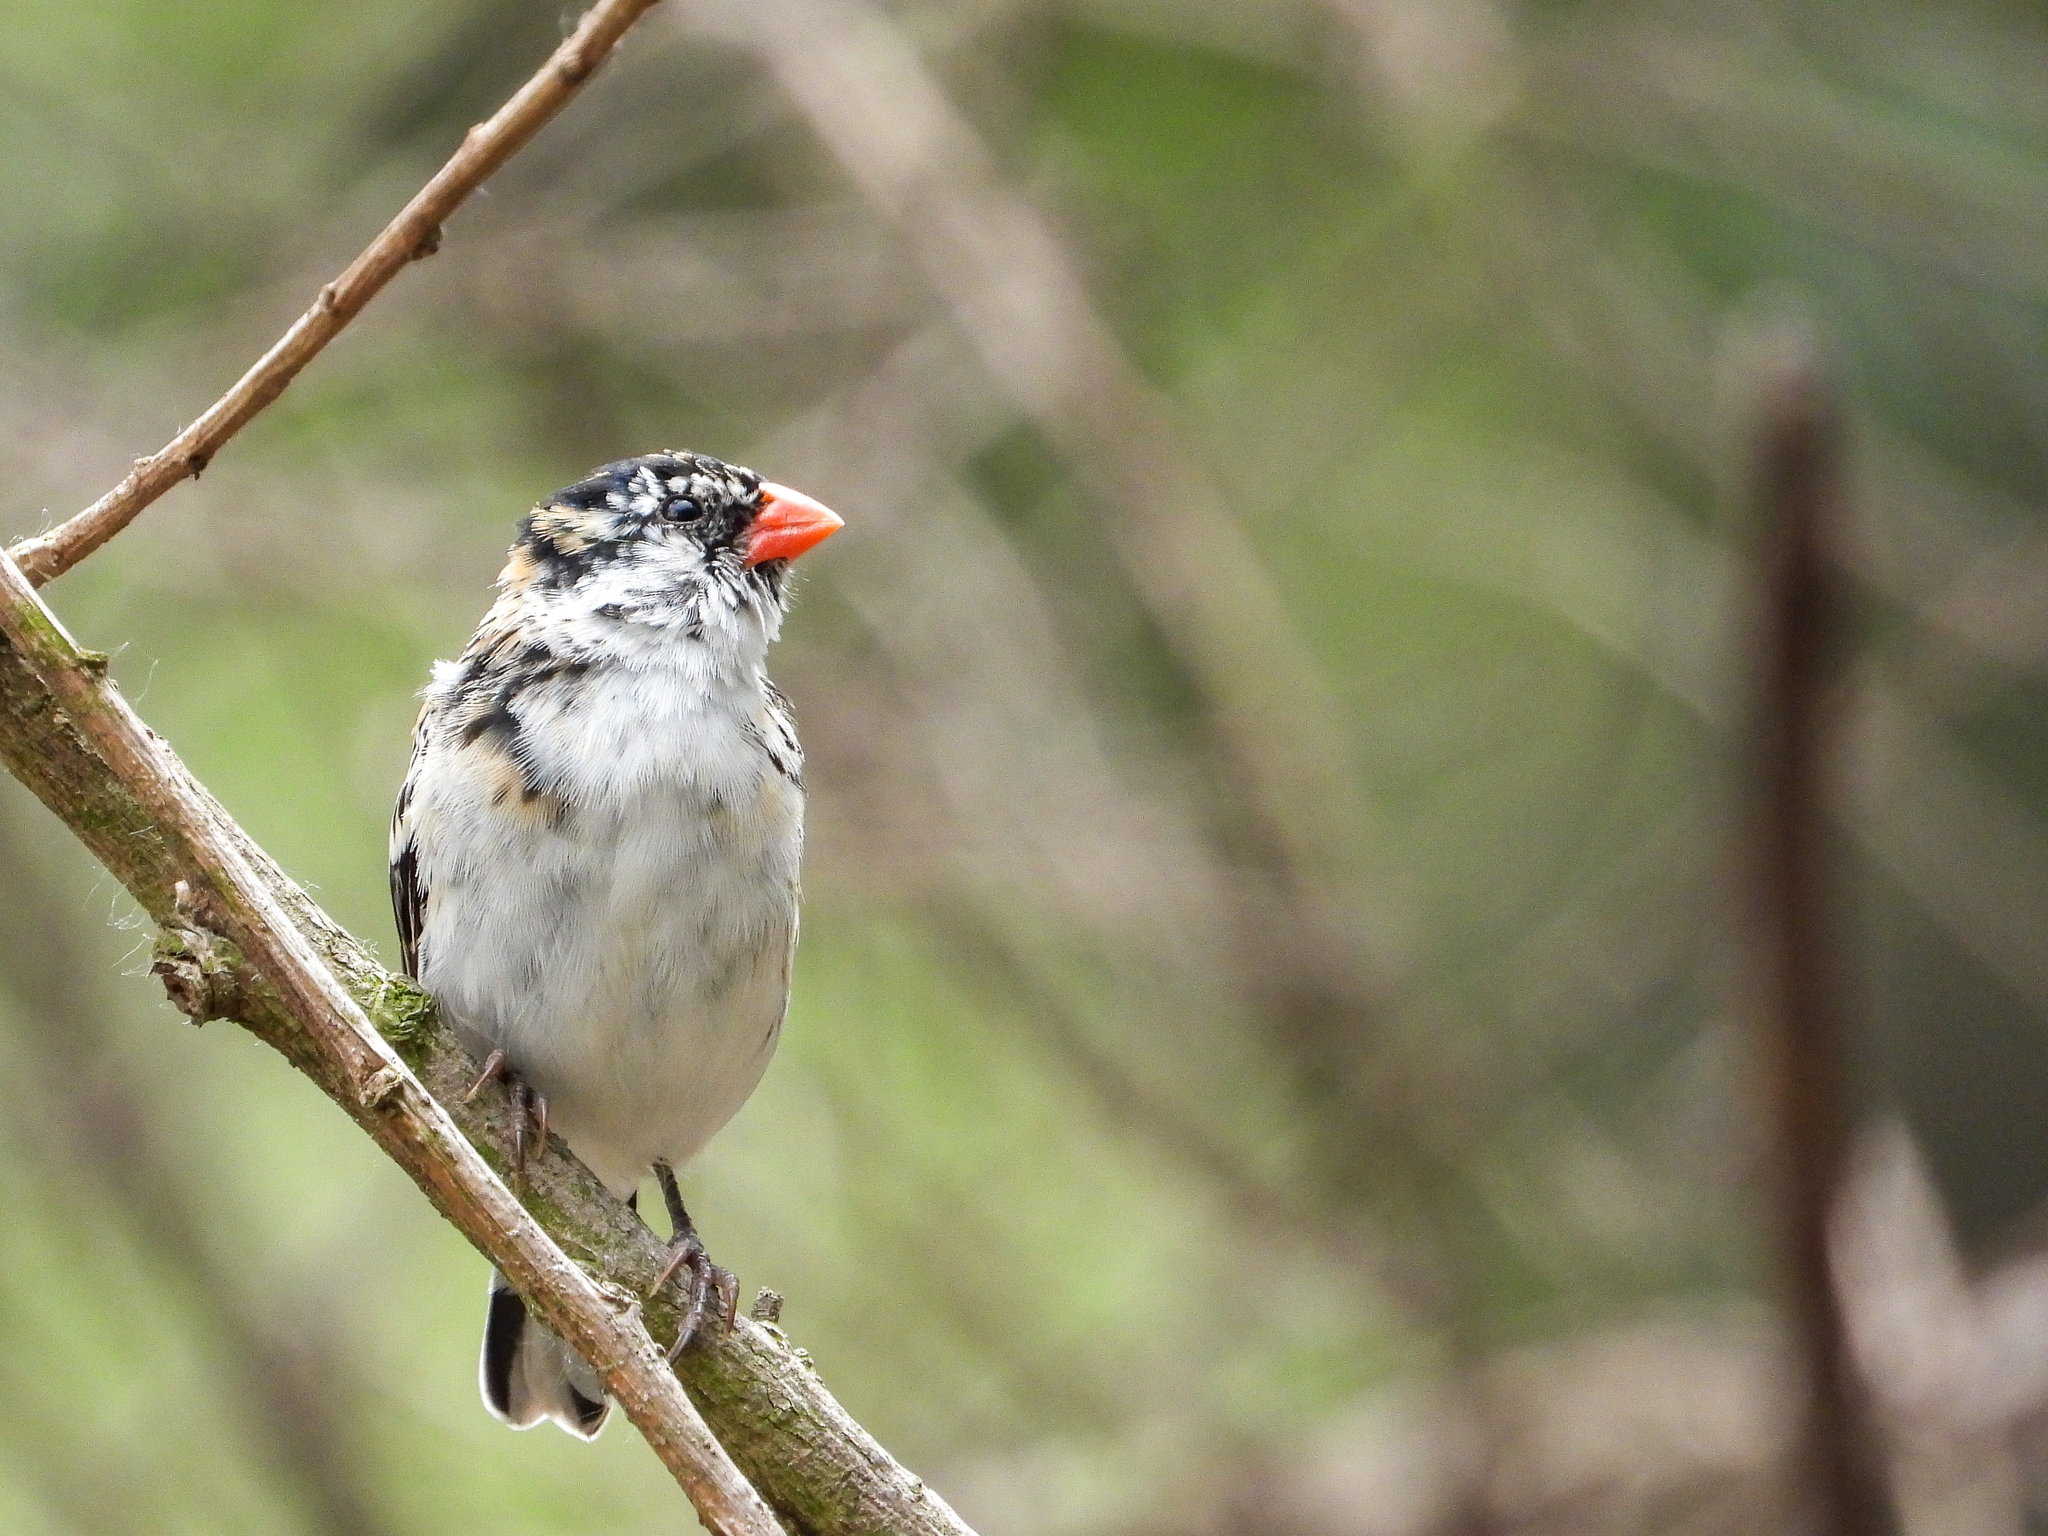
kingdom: Animalia
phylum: Chordata
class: Aves
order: Passeriformes
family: Viduidae
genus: Vidua
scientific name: Vidua macroura
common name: Pin-tailed whydah
